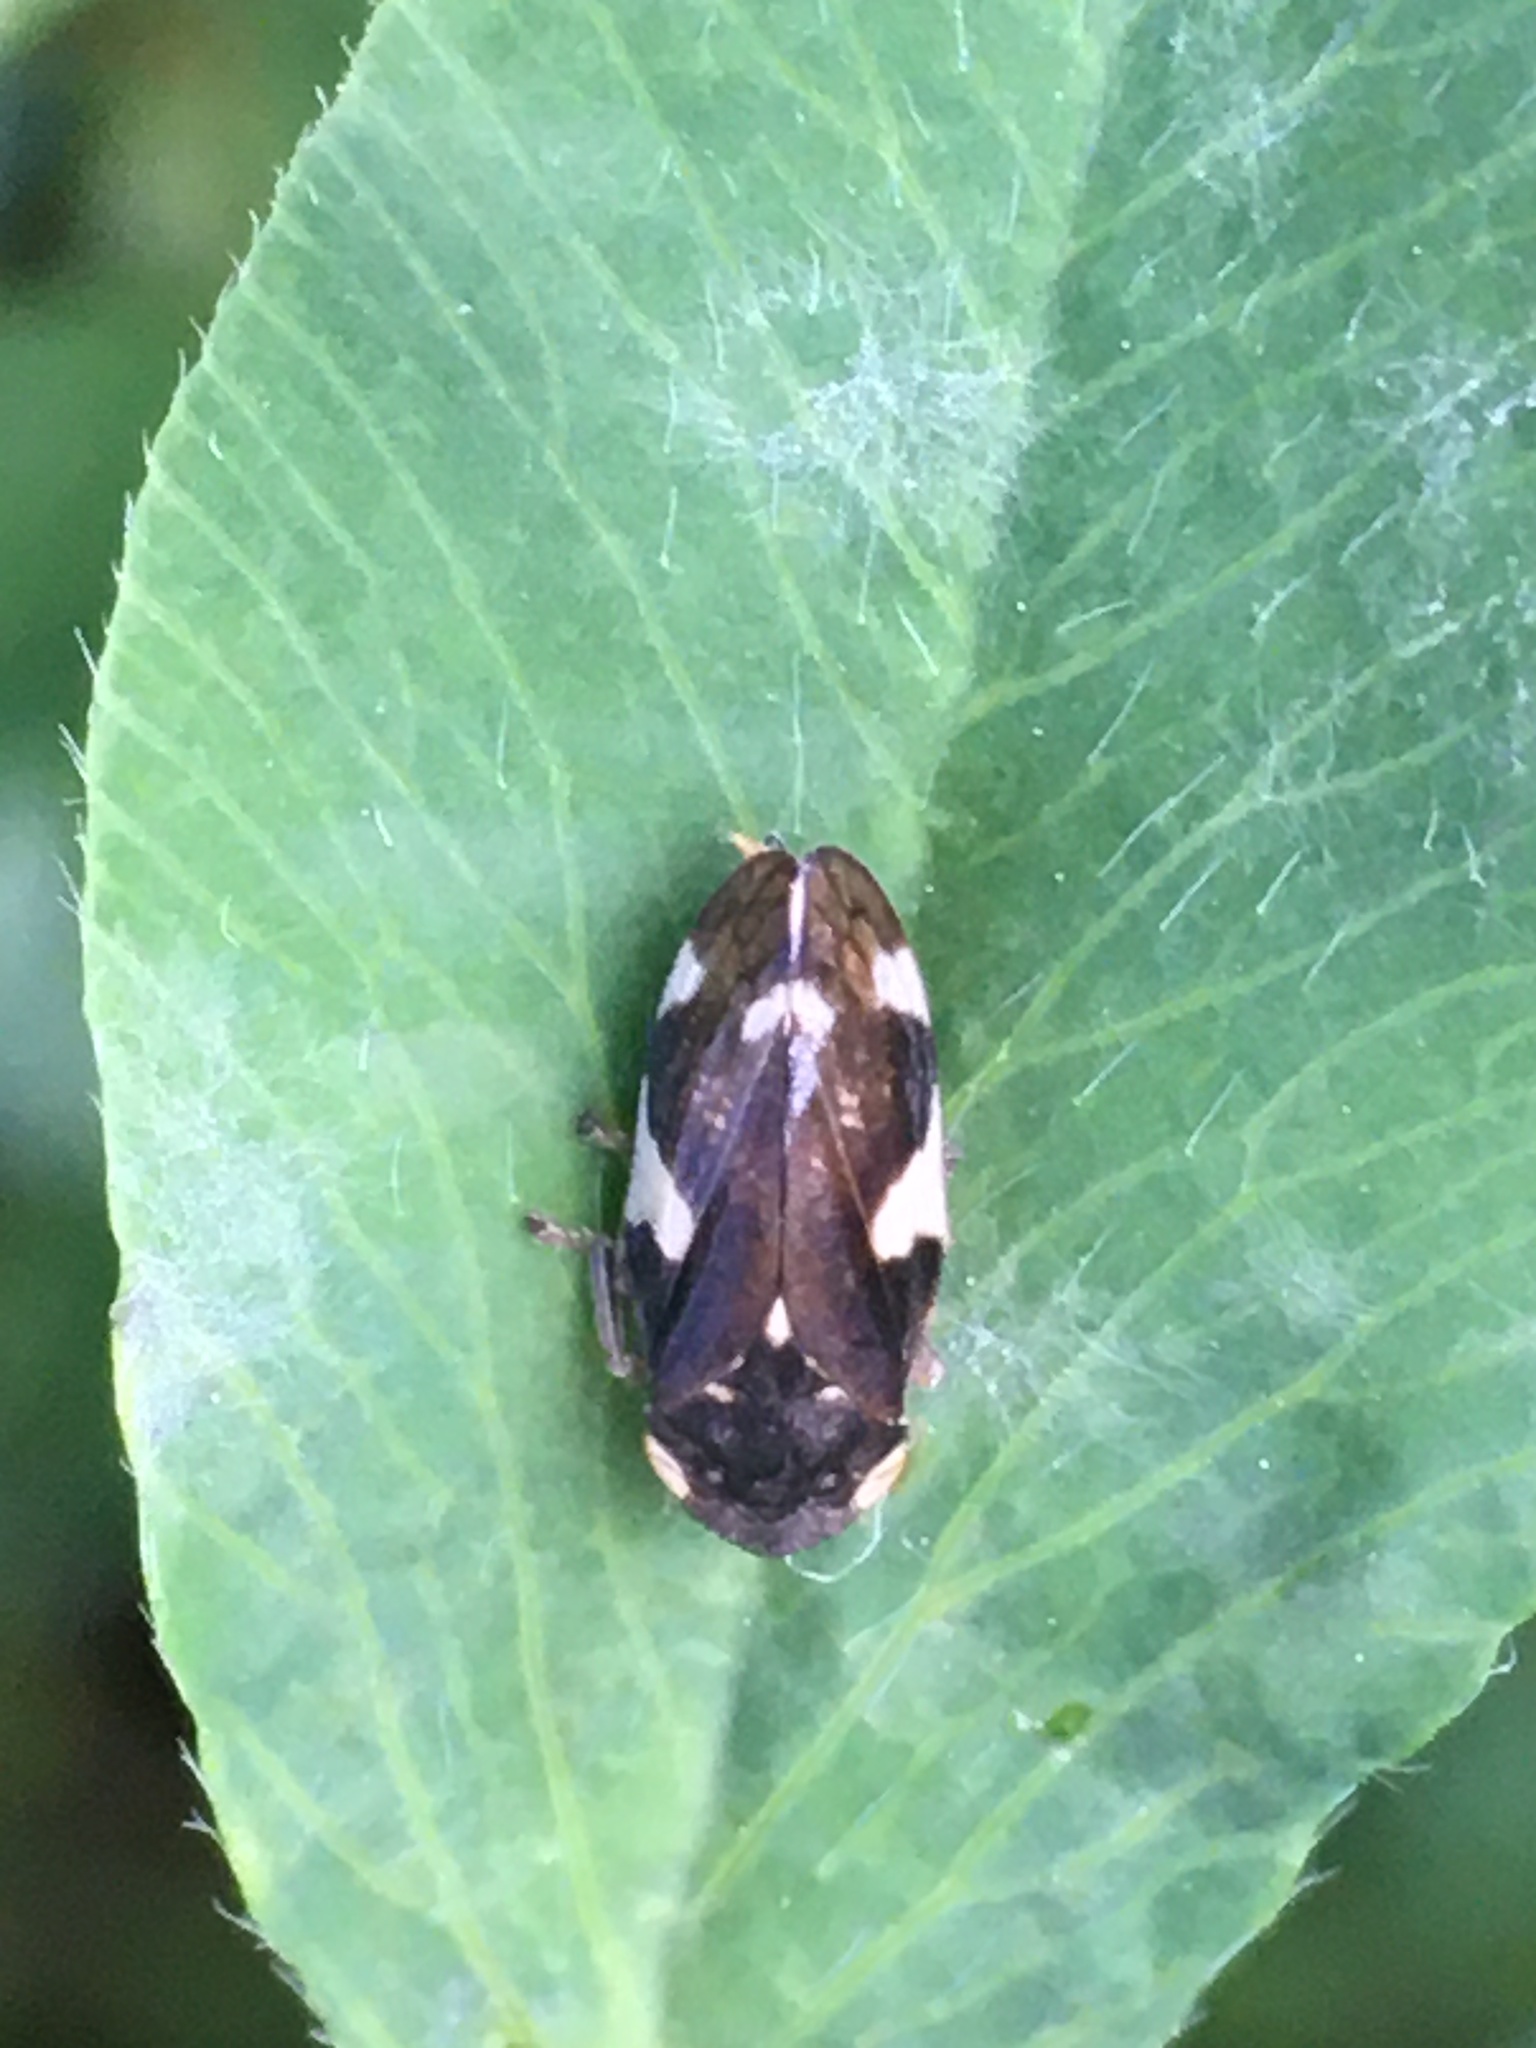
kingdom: Animalia
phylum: Arthropoda
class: Insecta
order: Hemiptera
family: Aphrophoridae
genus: Philaenus
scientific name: Philaenus spumarius
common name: Meadow spittlebug
